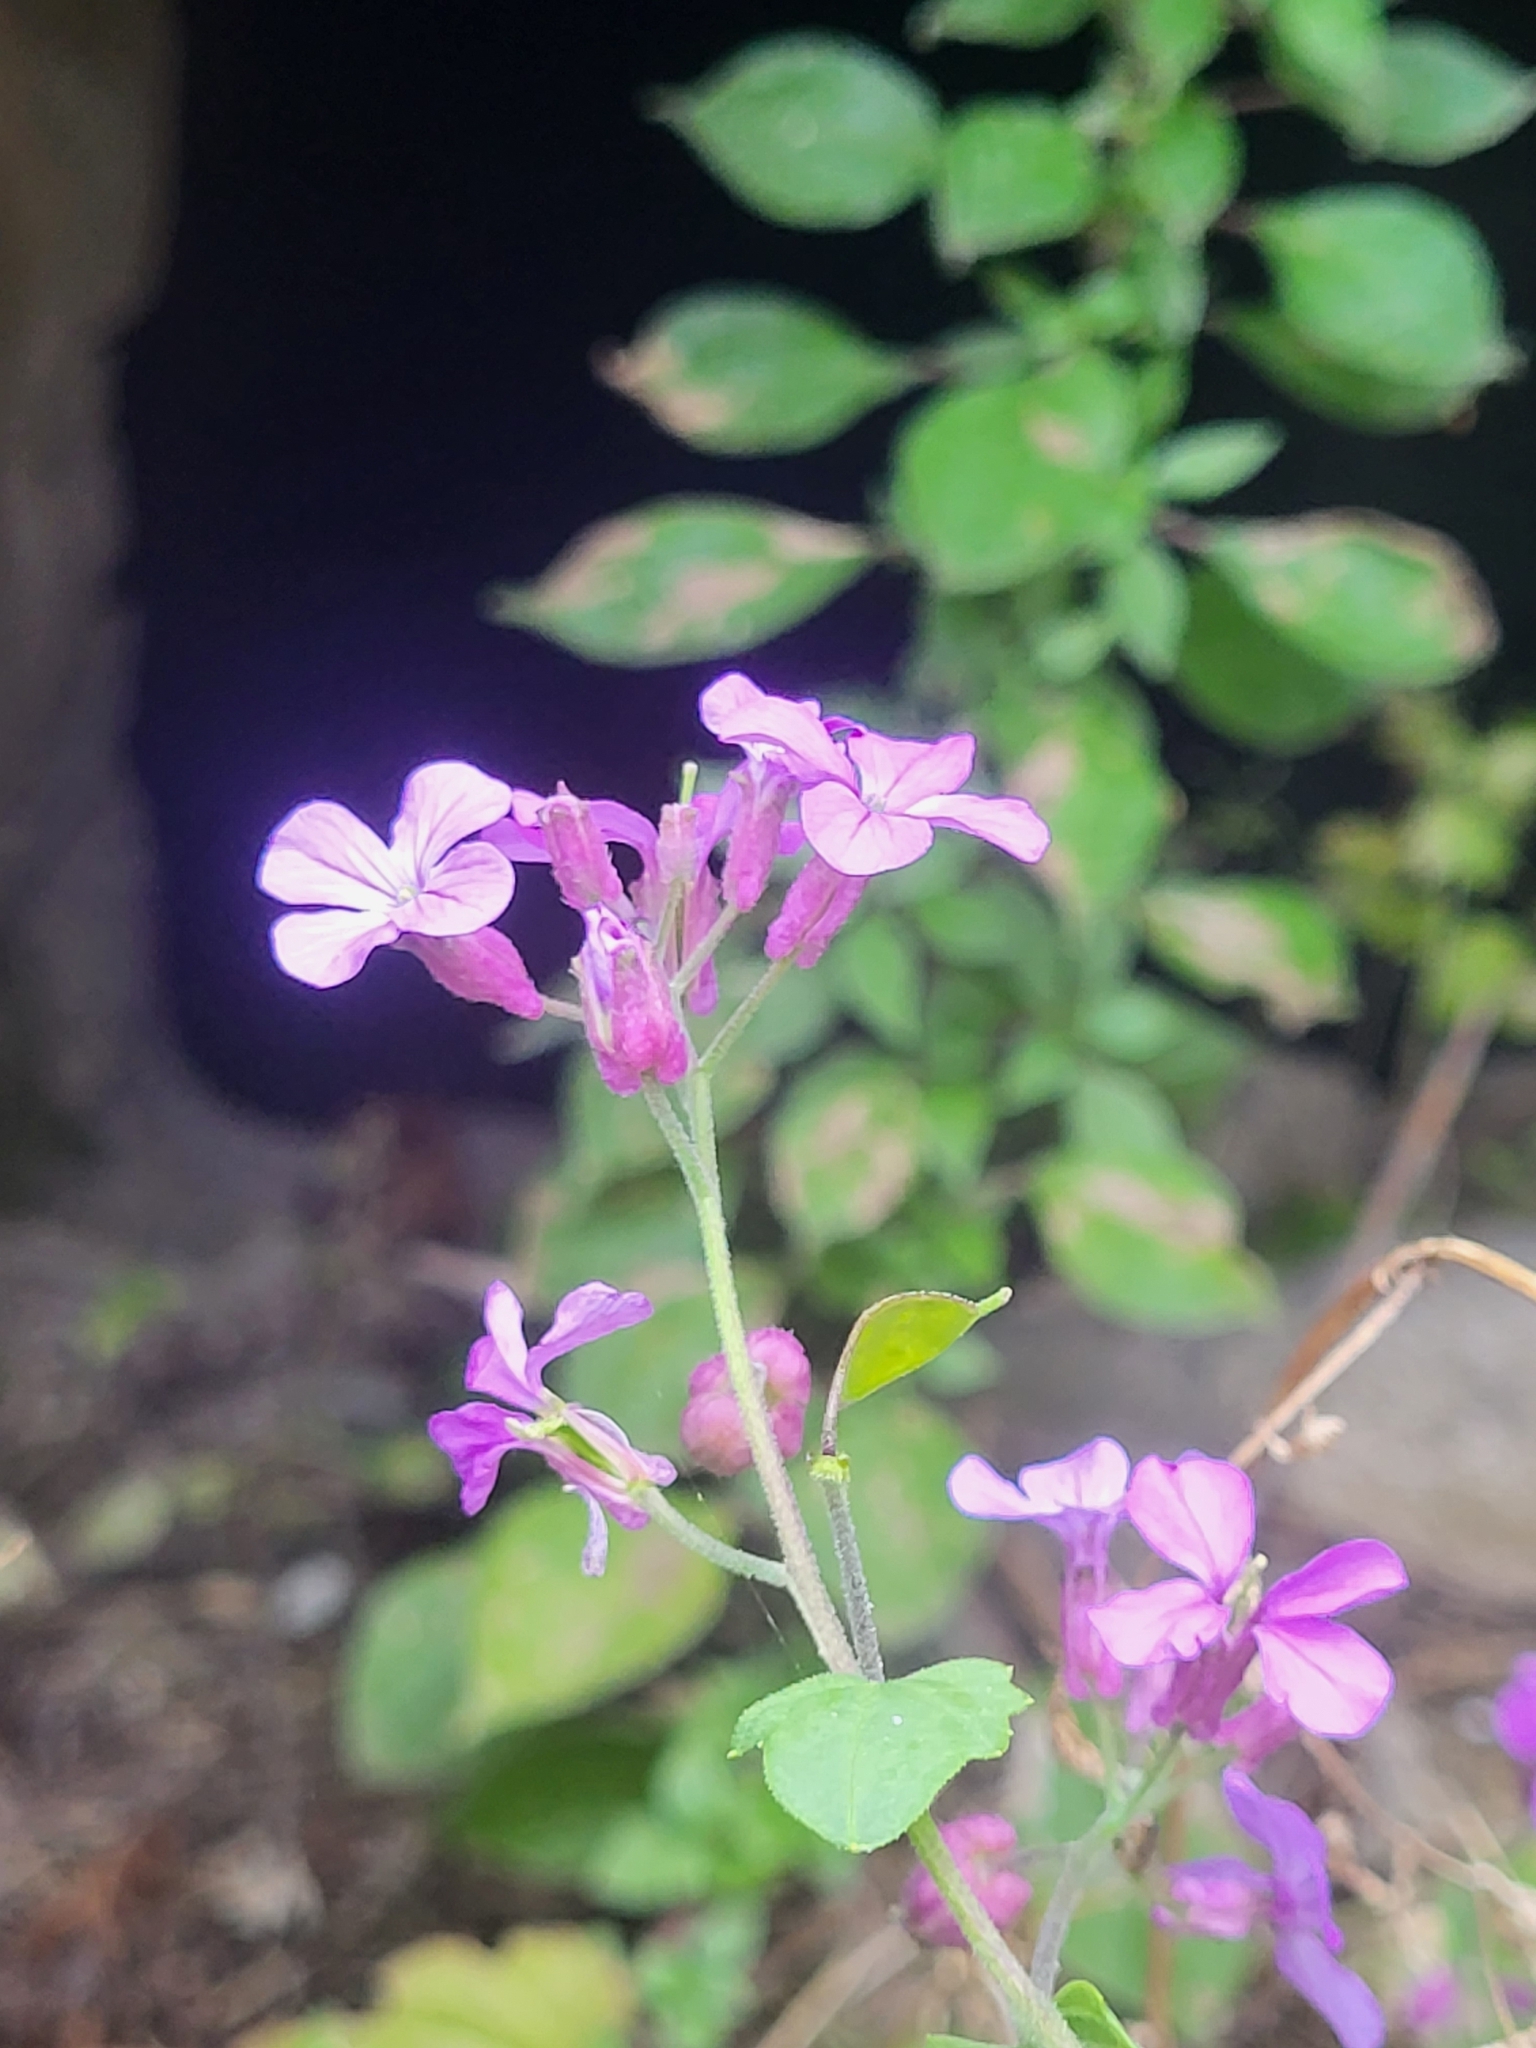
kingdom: Plantae
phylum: Tracheophyta
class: Magnoliopsida
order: Brassicales
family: Brassicaceae
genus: Lunaria
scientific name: Lunaria annua
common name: Honesty
